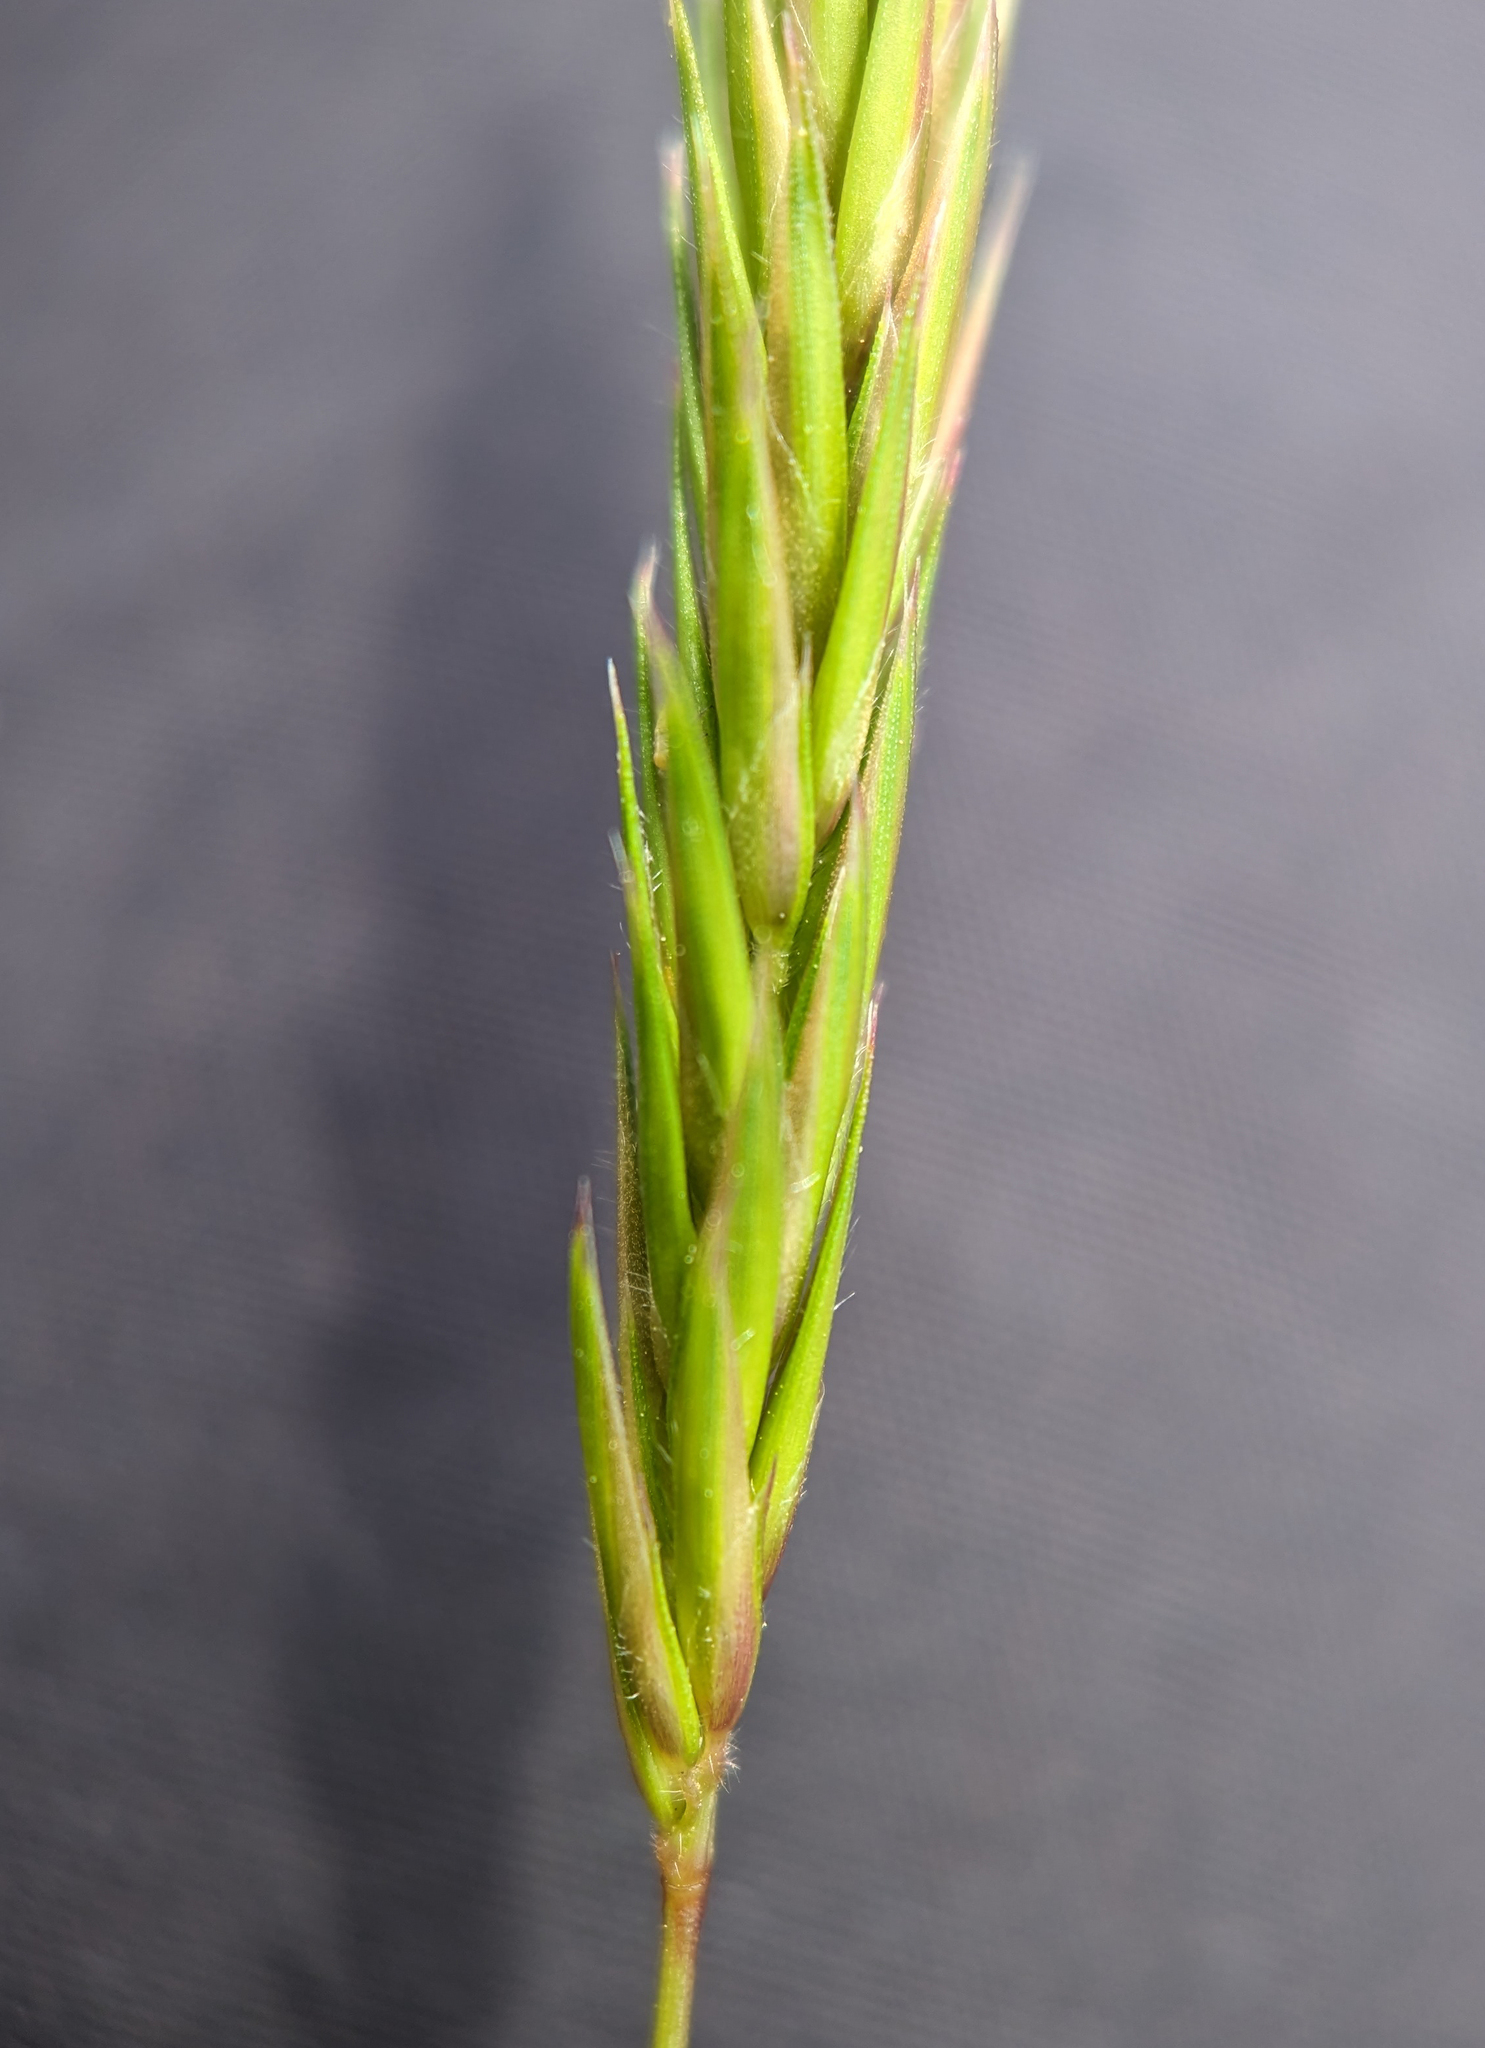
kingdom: Plantae
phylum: Tracheophyta
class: Liliopsida
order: Poales
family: Poaceae
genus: Anthoxanthum
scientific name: Anthoxanthum odoratum
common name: Sweet vernalgrass
